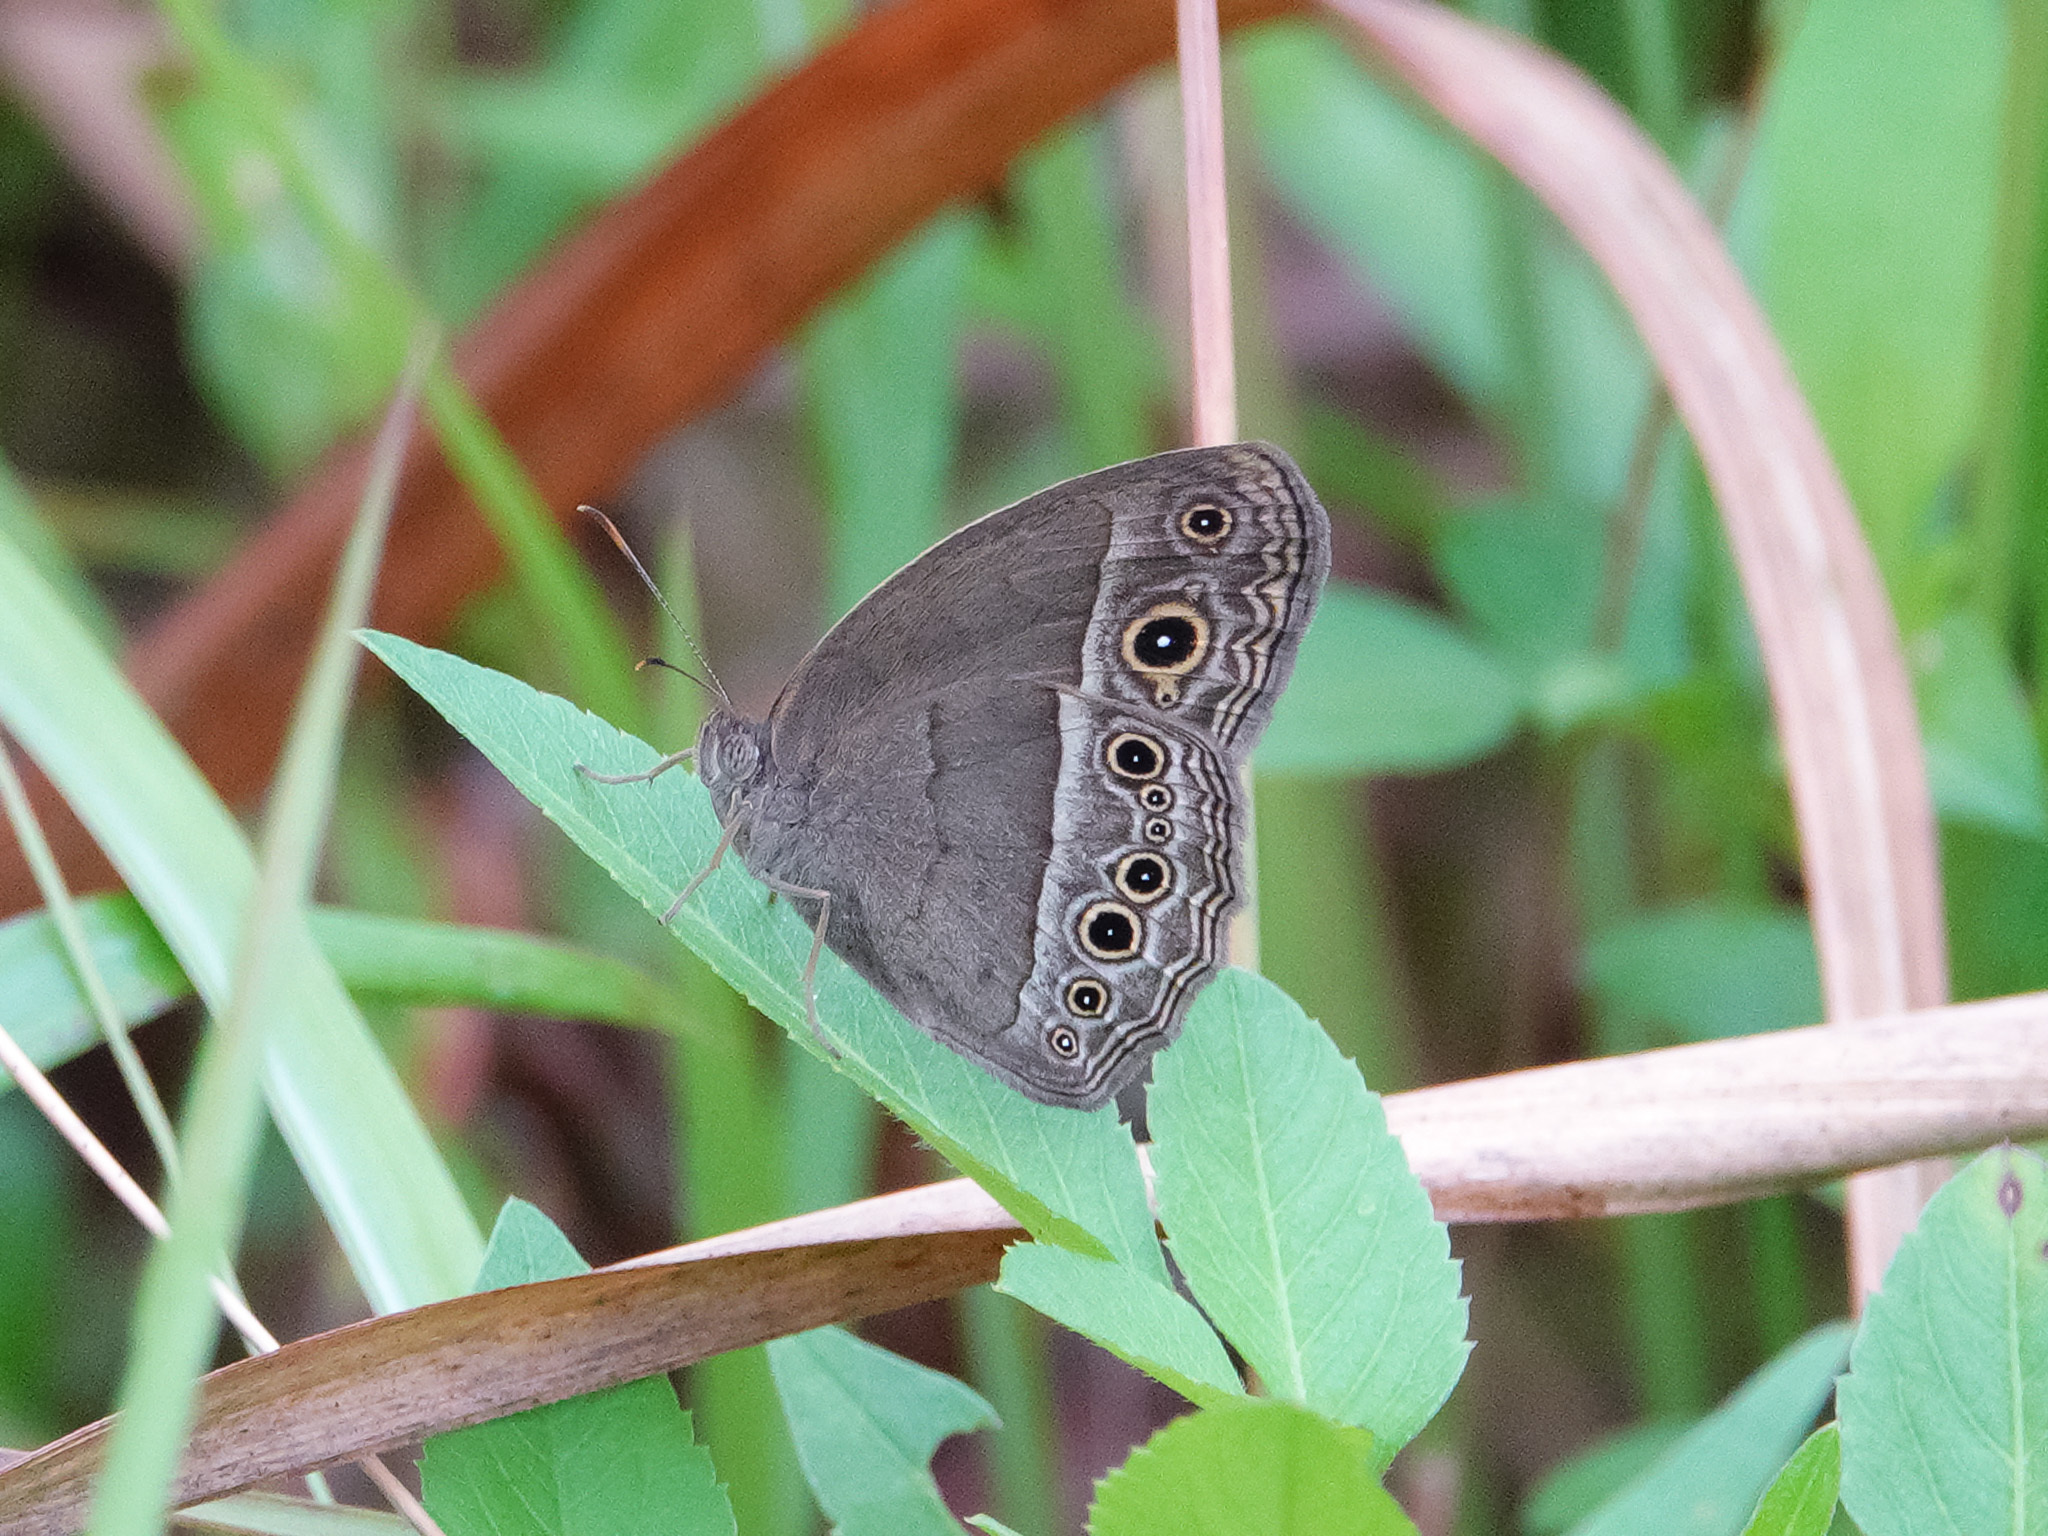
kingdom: Animalia
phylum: Arthropoda
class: Insecta
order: Lepidoptera
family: Nymphalidae
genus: Mycalesis
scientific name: Mycalesis perseoides
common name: Burmese bushbrown
